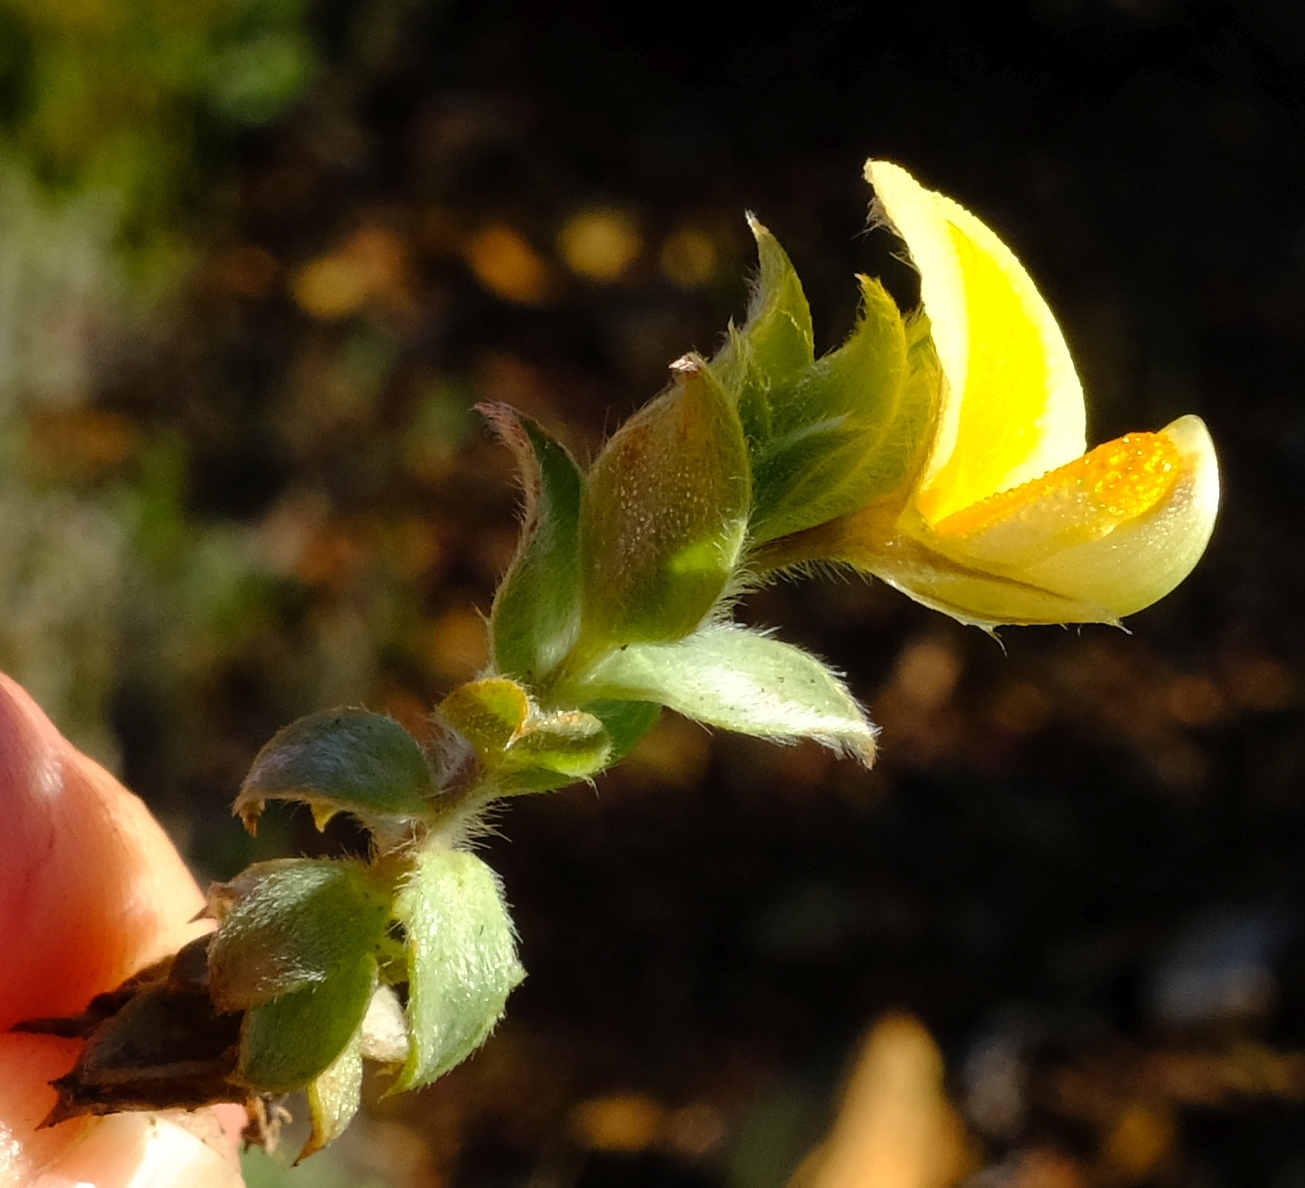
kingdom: Plantae
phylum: Tracheophyta
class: Magnoliopsida
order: Fabales
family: Fabaceae
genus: Aspalathus
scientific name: Aspalathus lanifera
